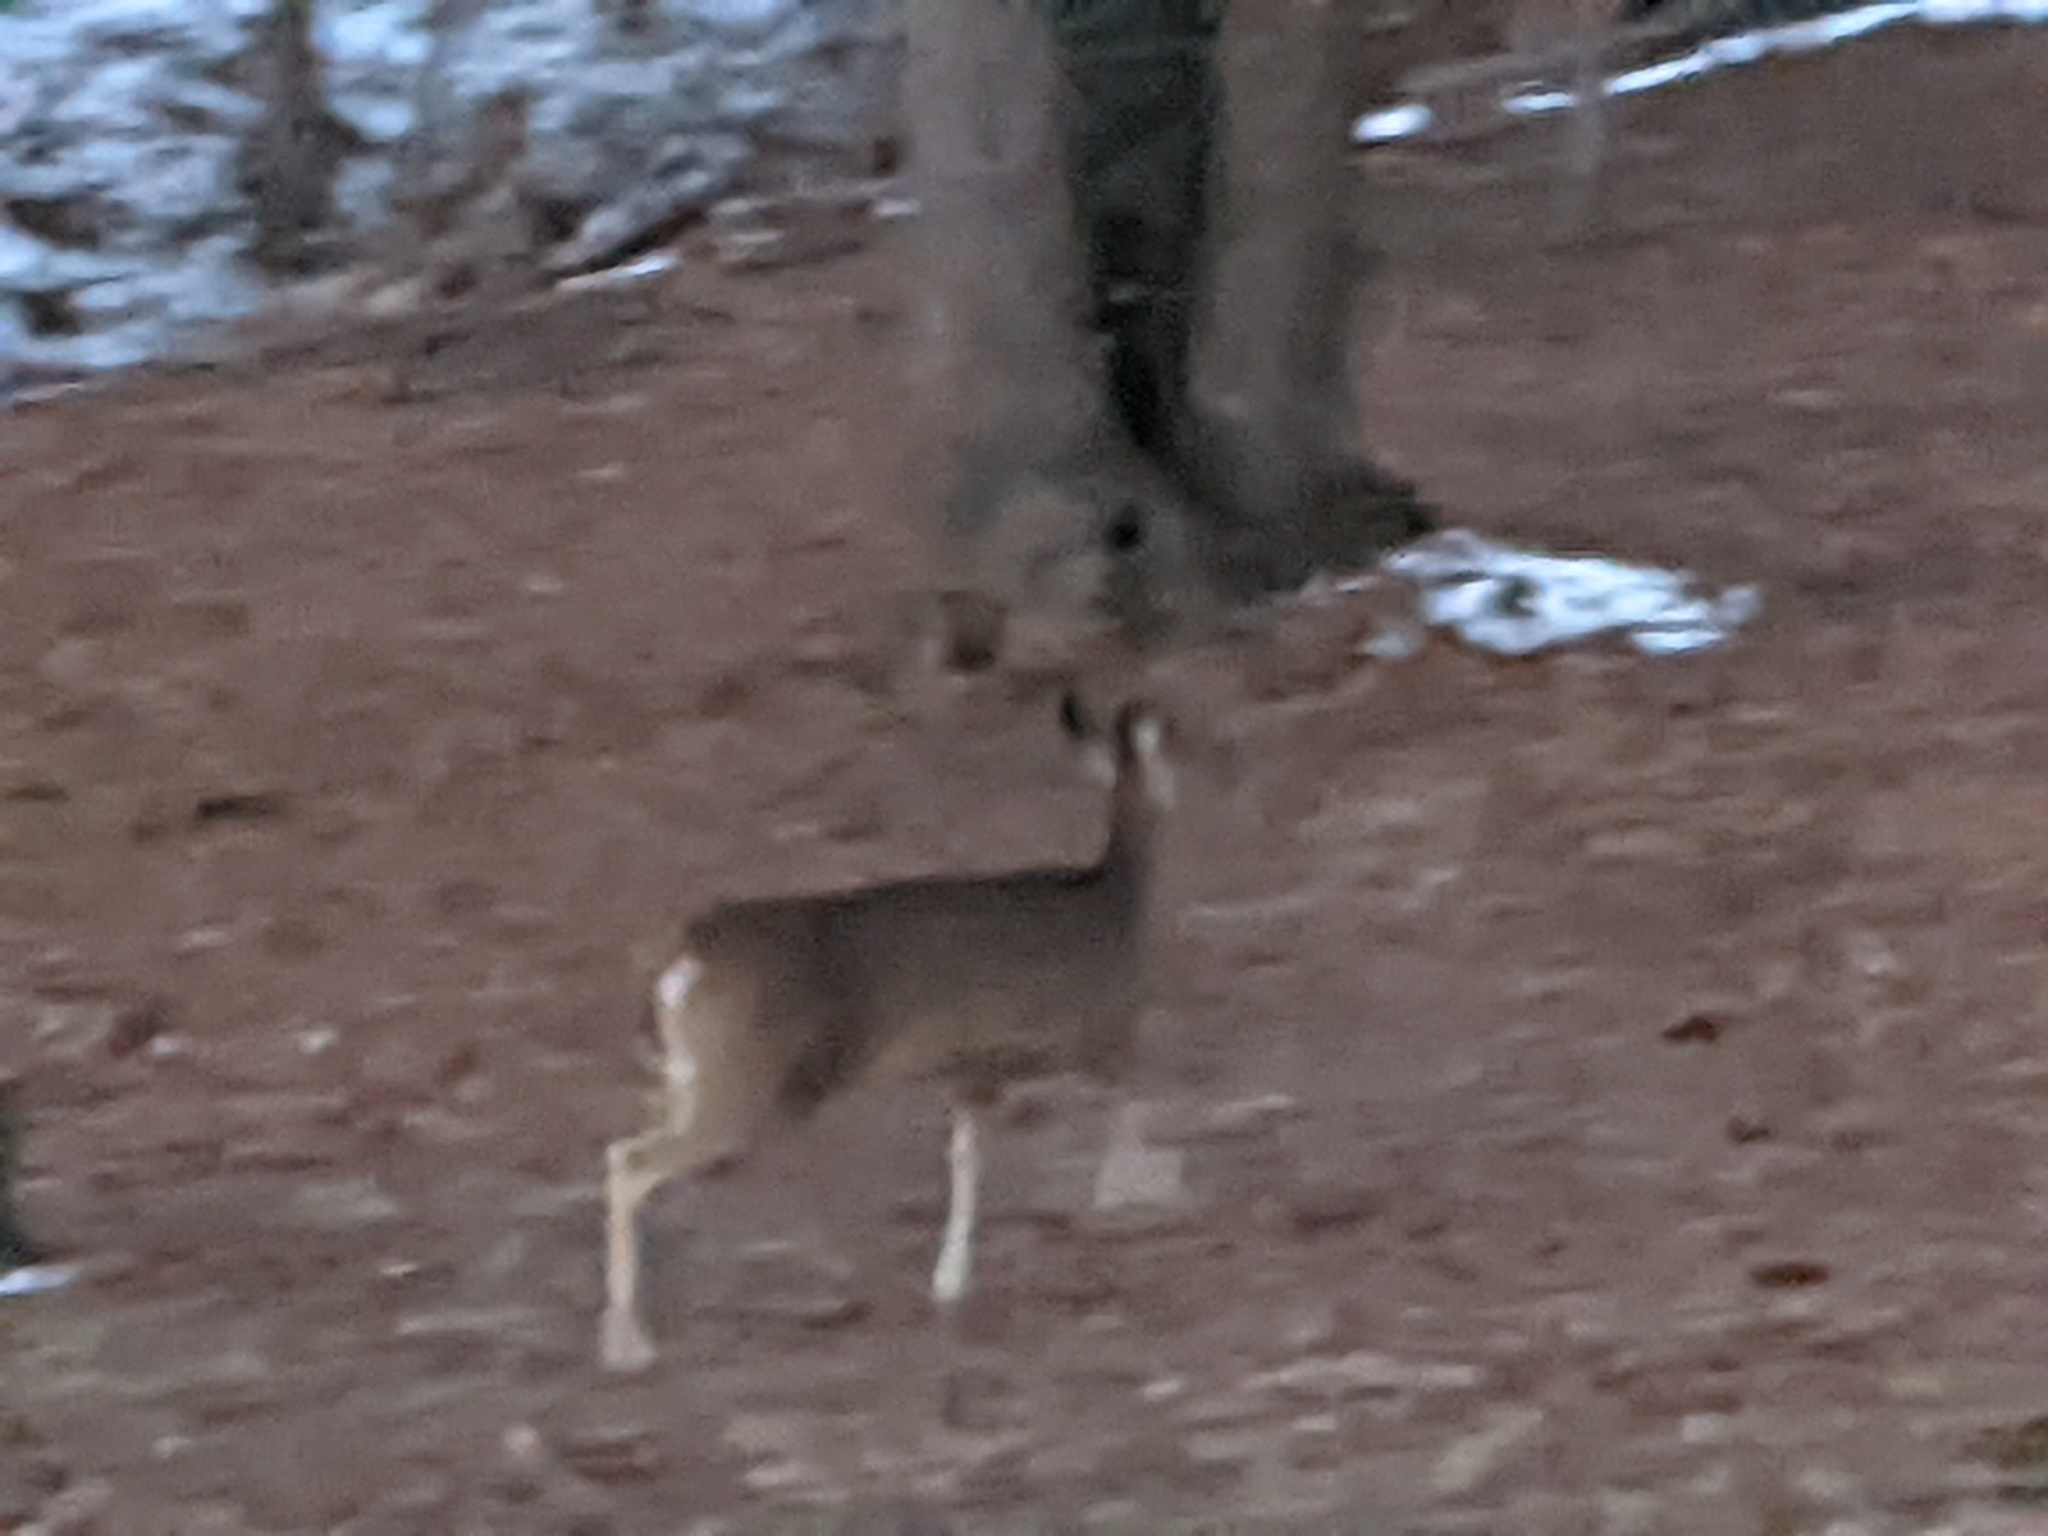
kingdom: Animalia
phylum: Chordata
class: Mammalia
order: Artiodactyla
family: Cervidae
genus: Odocoileus
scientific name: Odocoileus virginianus
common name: White-tailed deer
